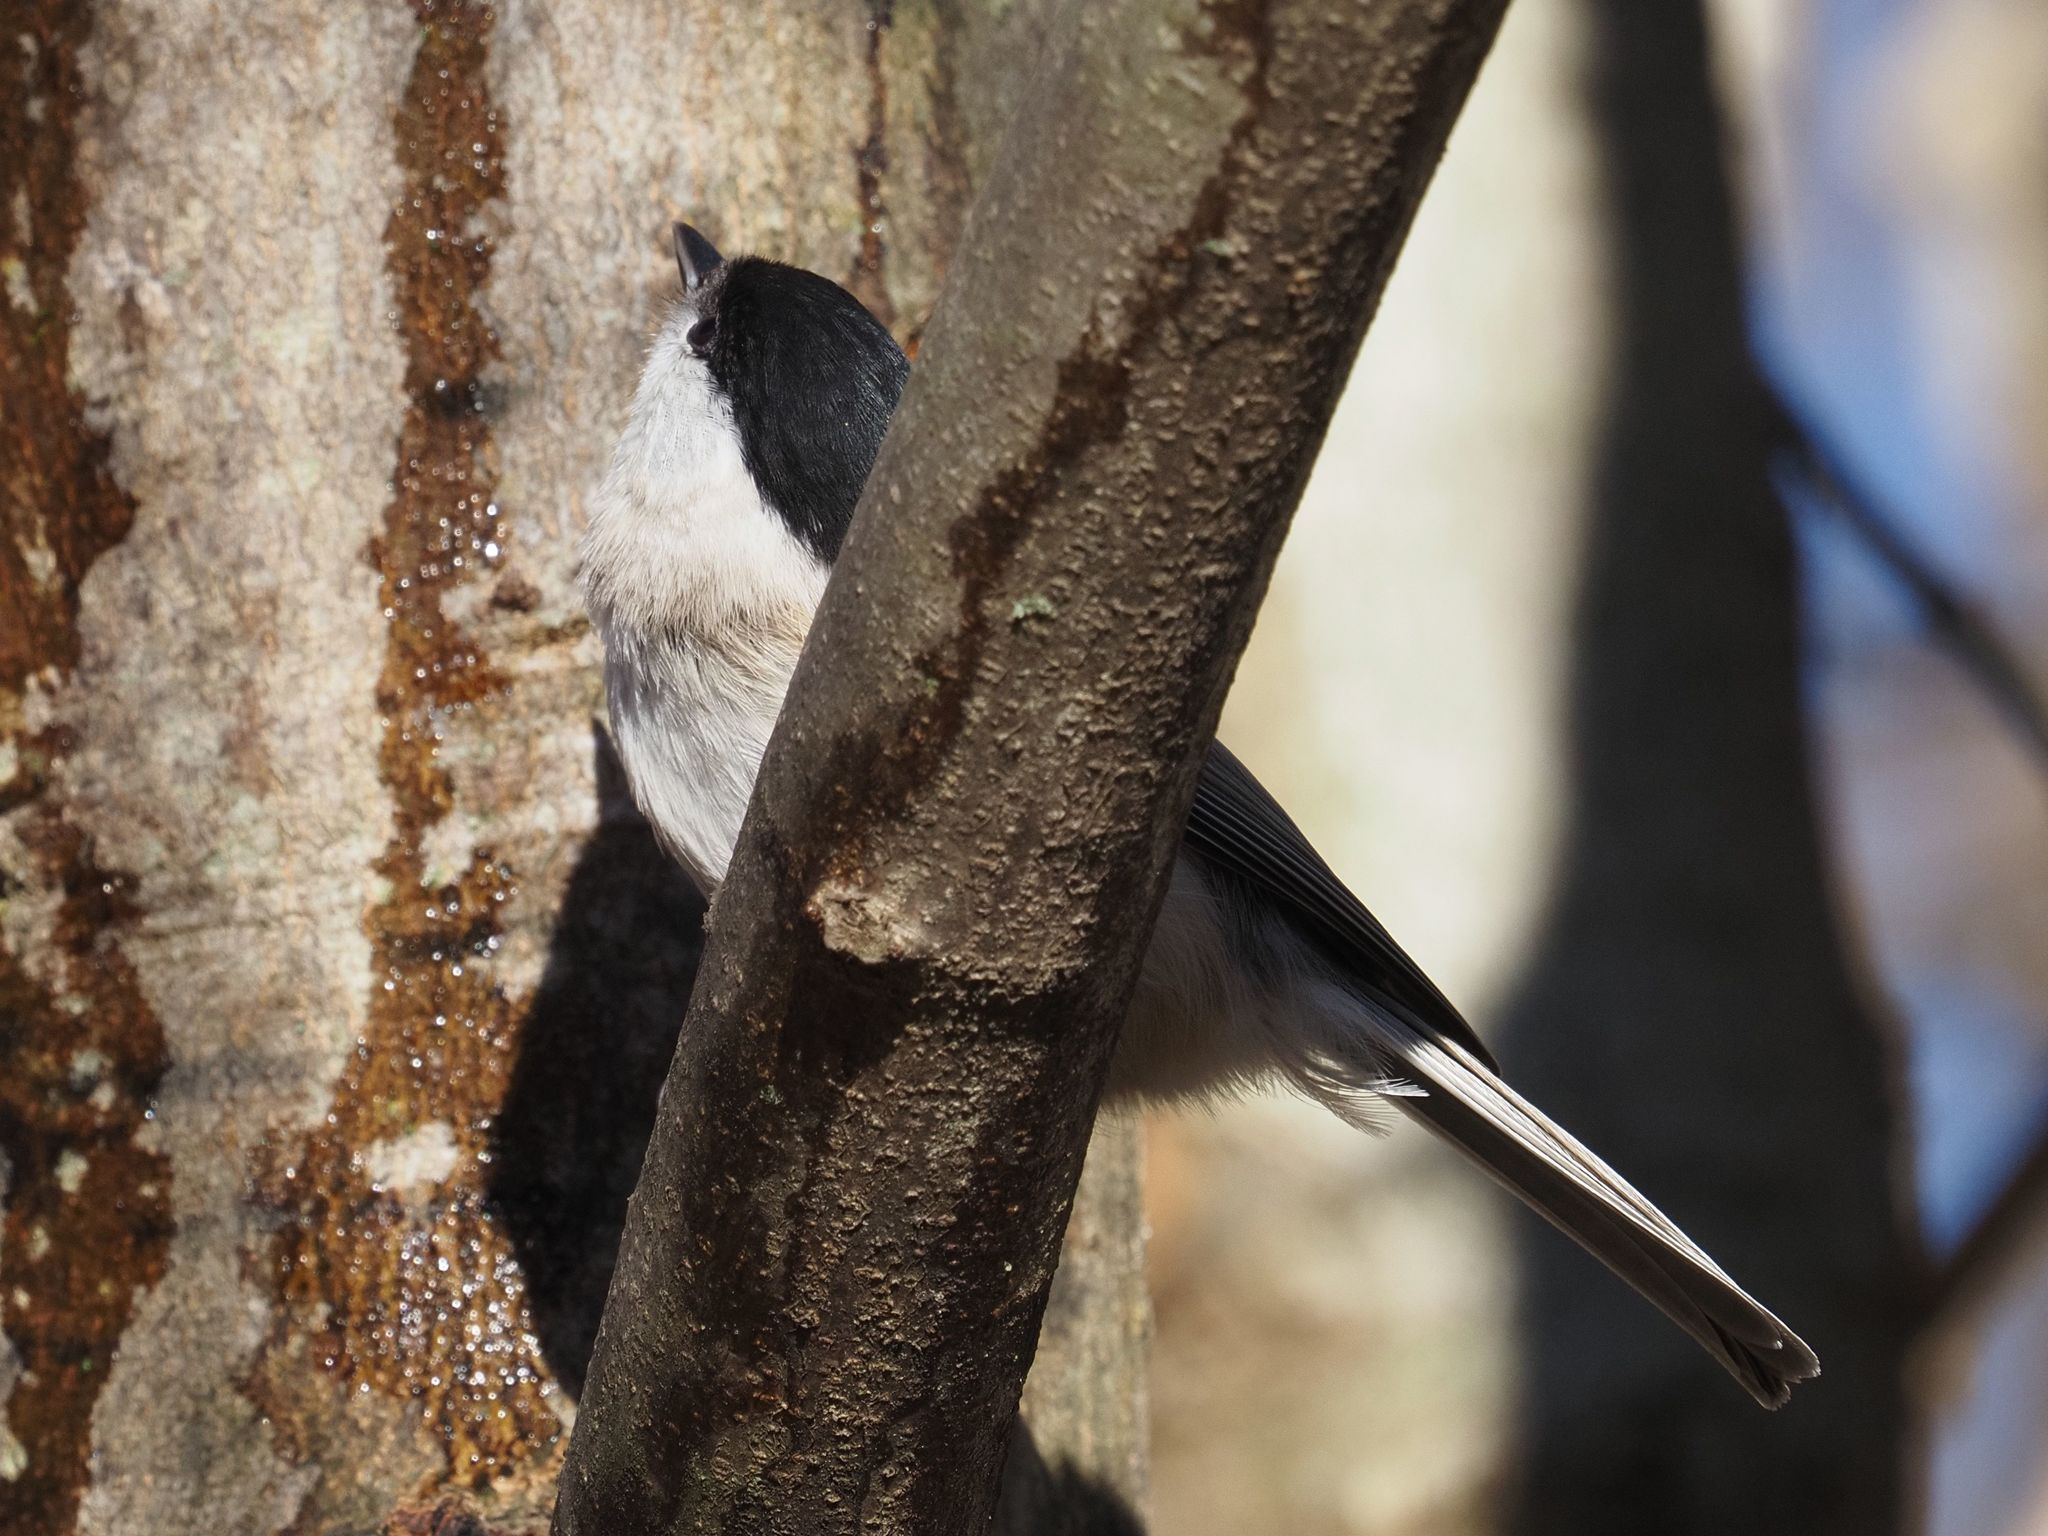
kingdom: Animalia
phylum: Chordata
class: Aves
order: Passeriformes
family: Paridae
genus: Poecile
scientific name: Poecile palustris
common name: Marsh tit
